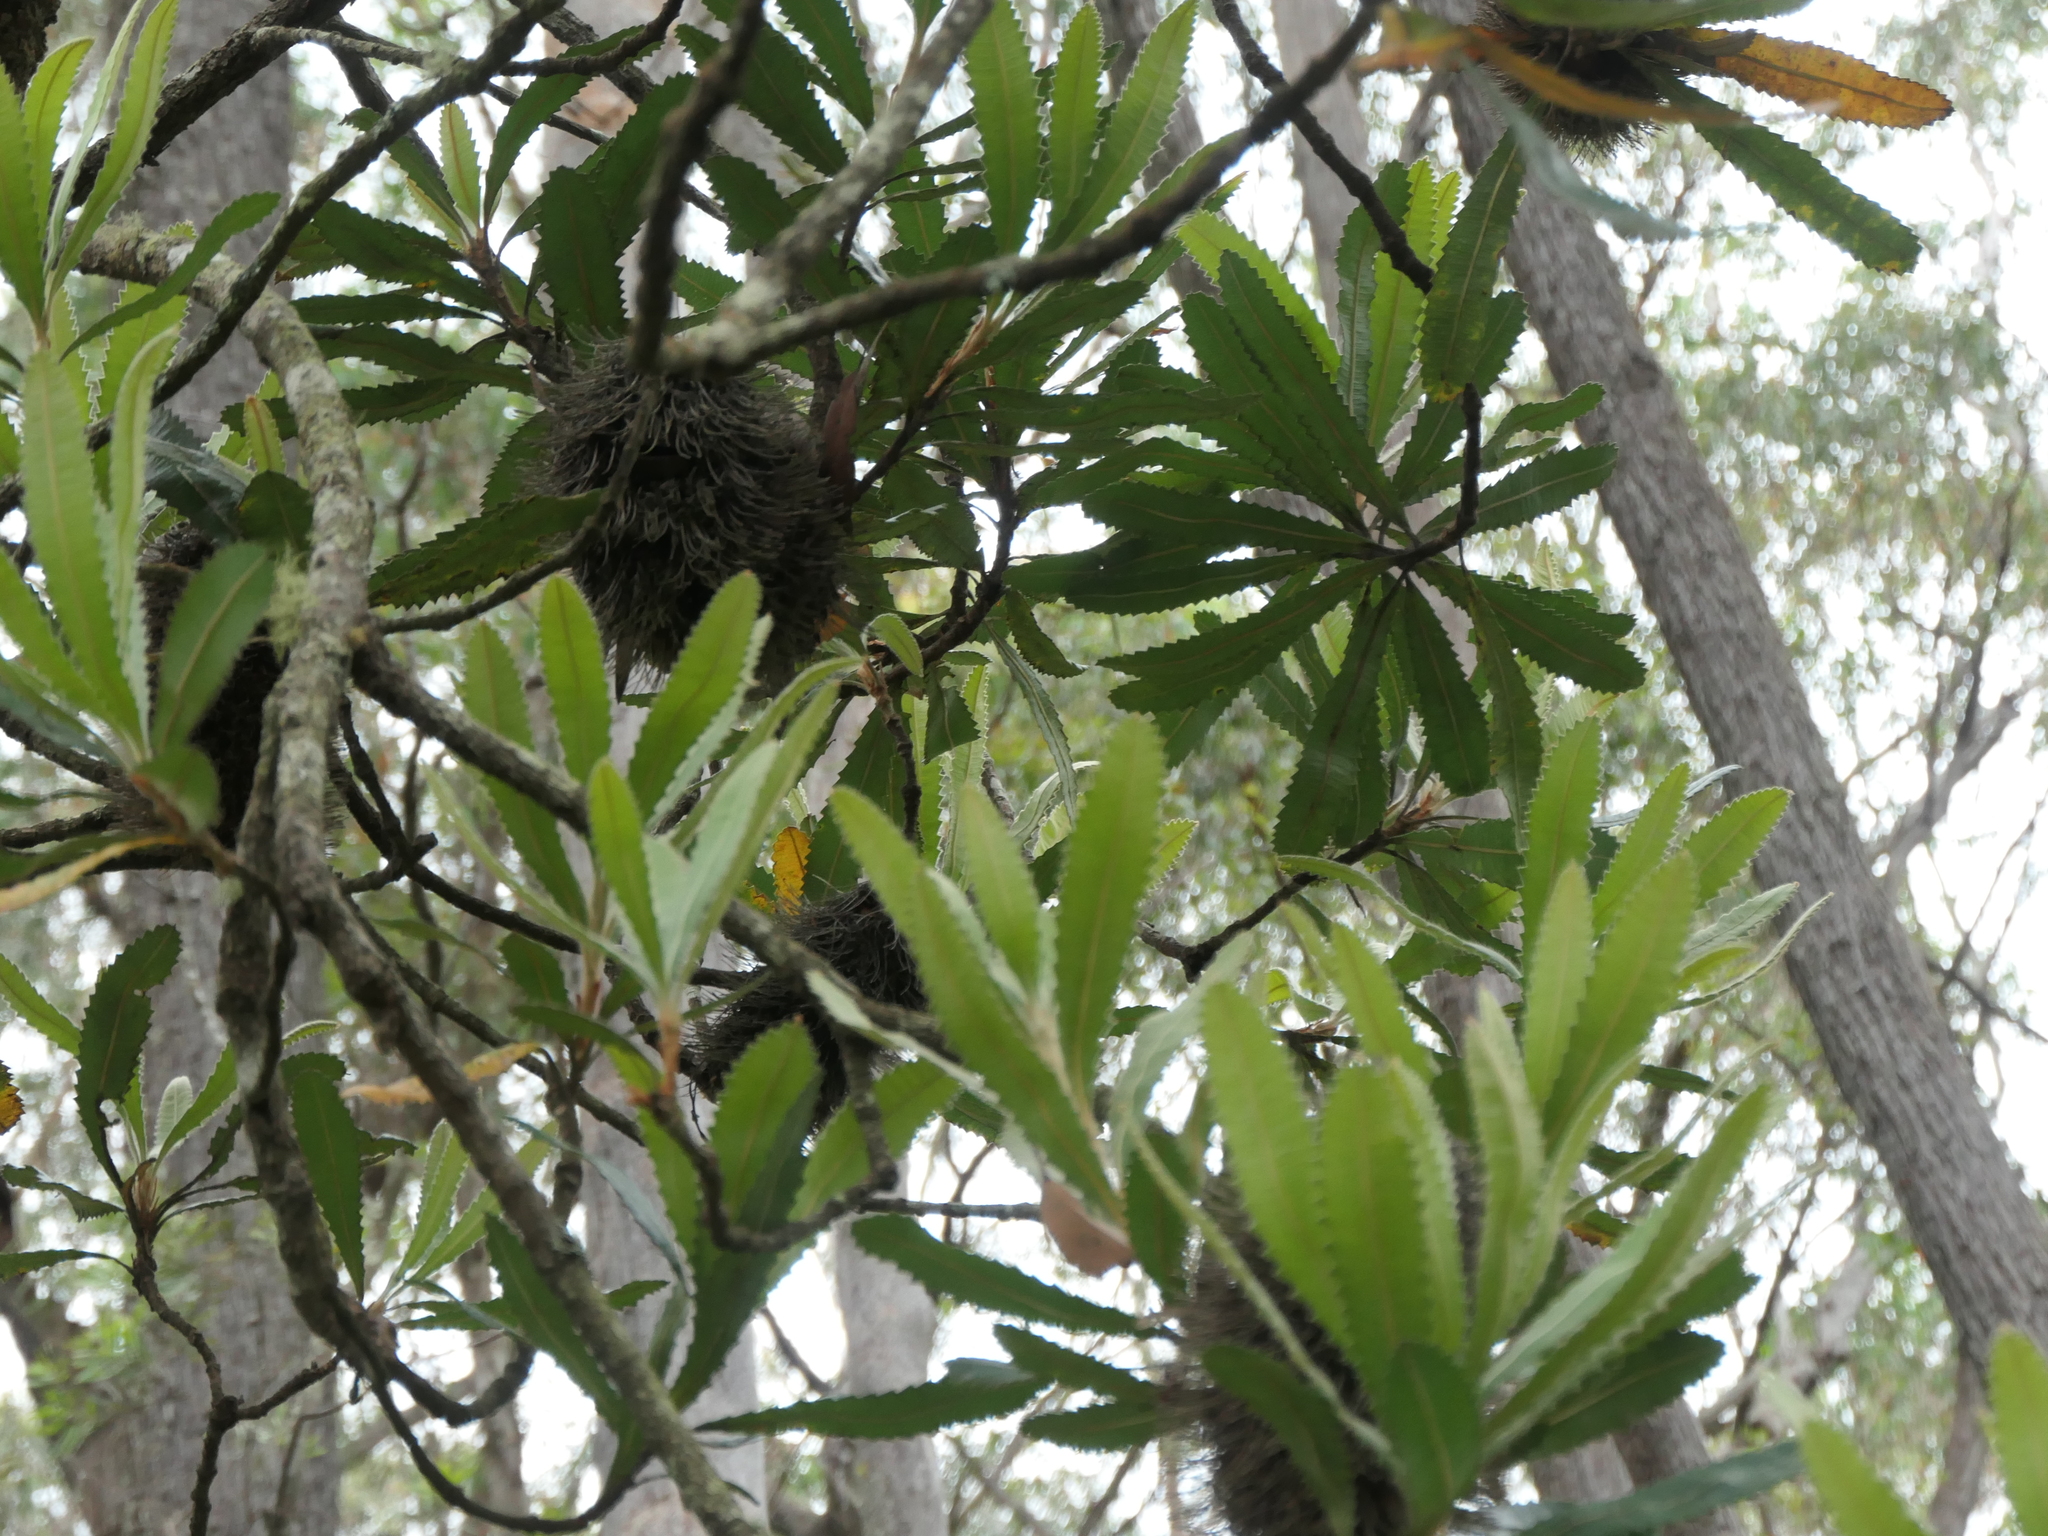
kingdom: Plantae
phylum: Tracheophyta
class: Magnoliopsida
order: Proteales
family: Proteaceae
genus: Banksia
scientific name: Banksia serrata
